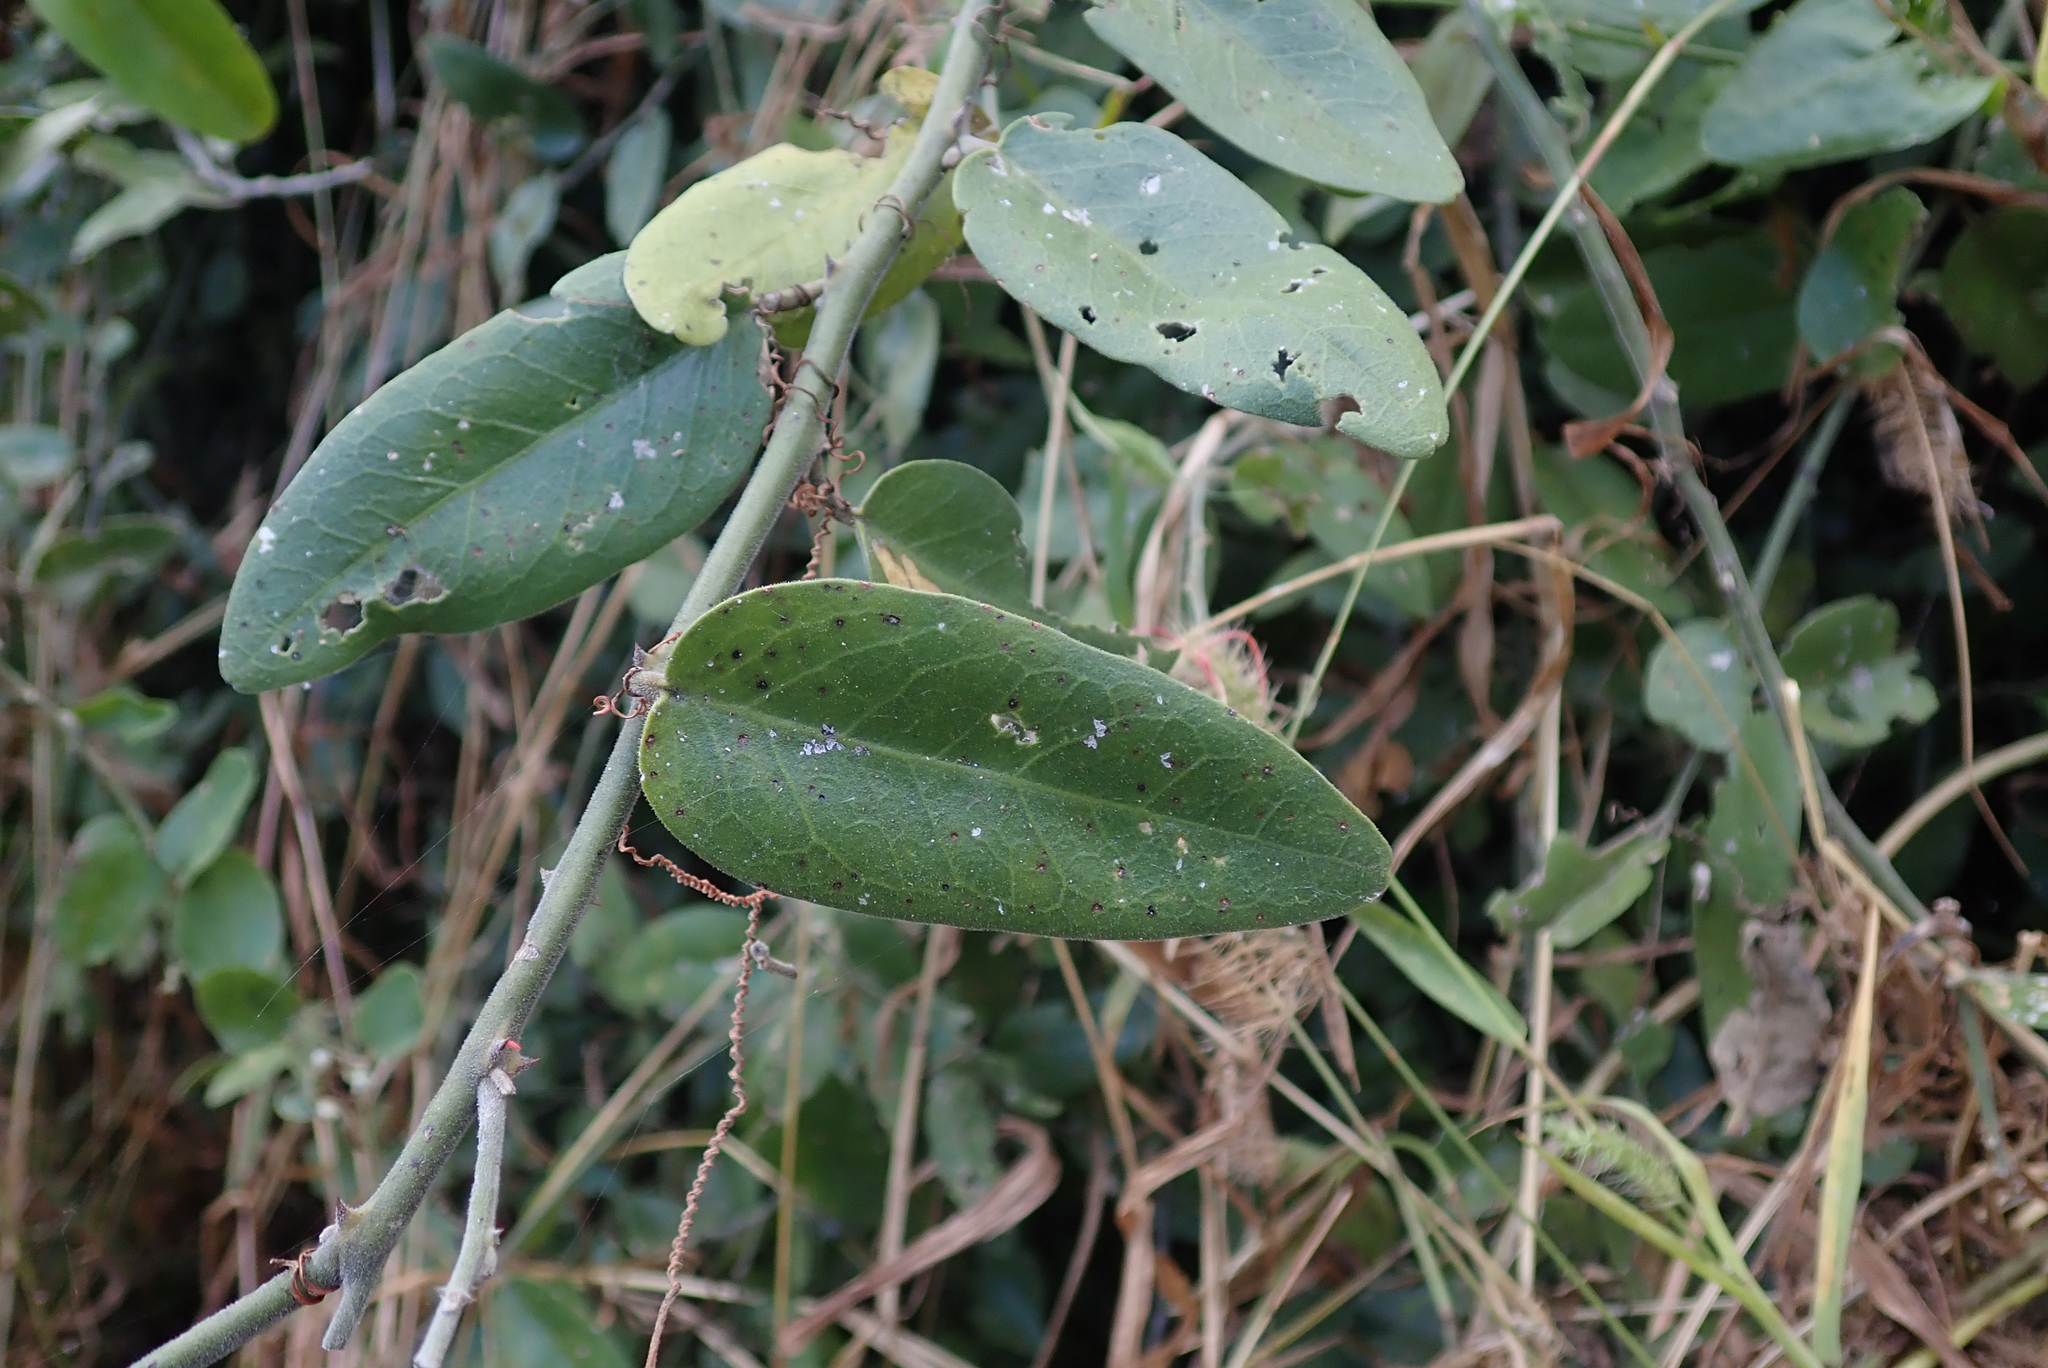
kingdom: Plantae
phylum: Tracheophyta
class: Magnoliopsida
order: Brassicales
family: Capparaceae
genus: Capparis
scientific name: Capparis tomentosa
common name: African caper
